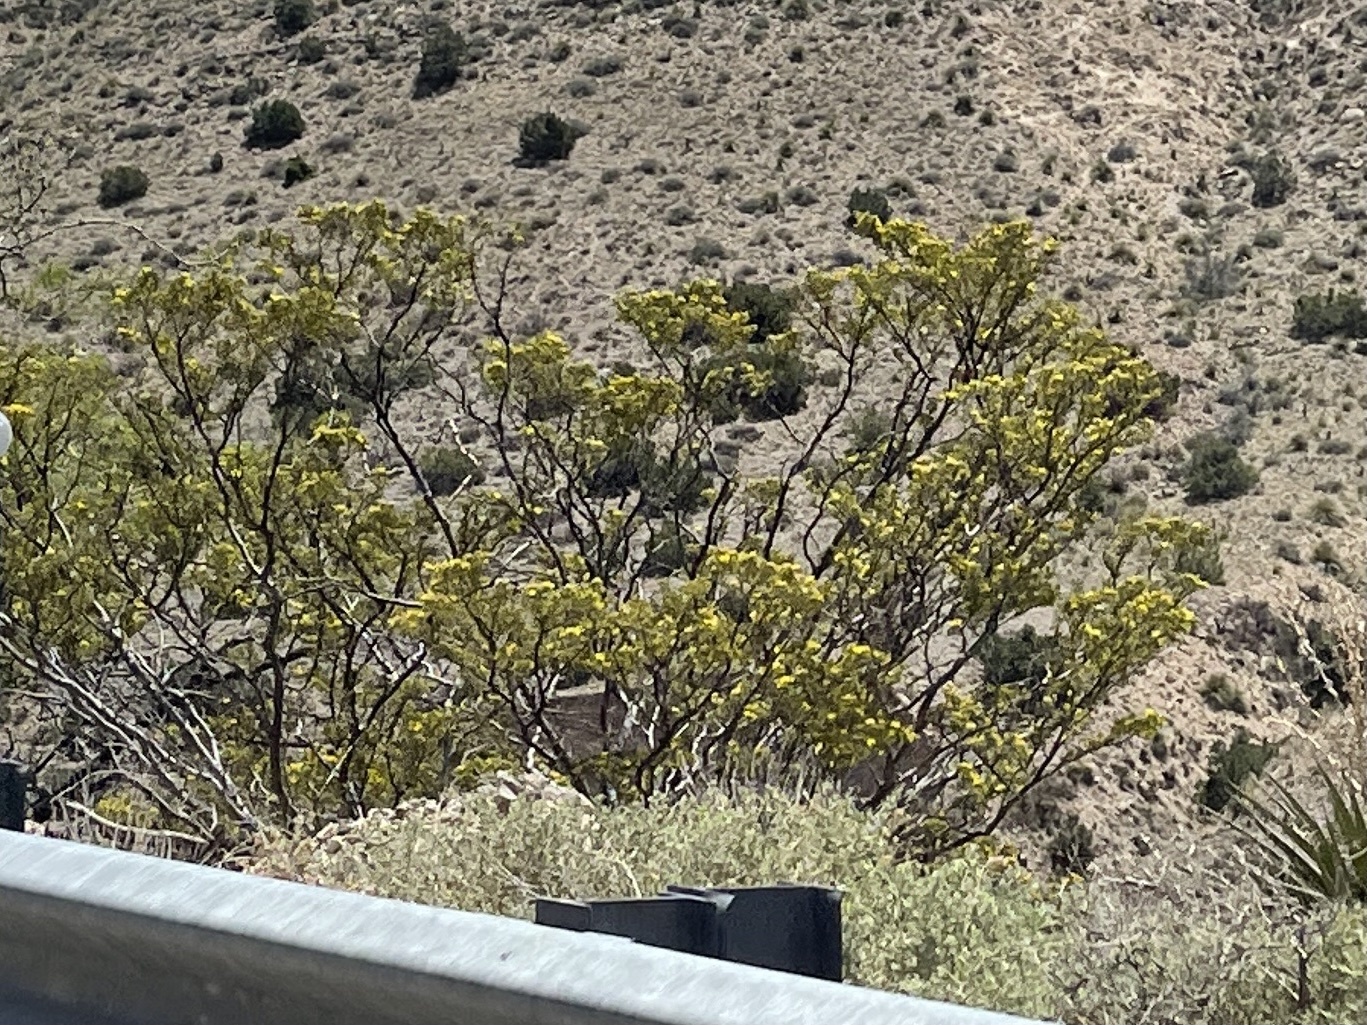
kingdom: Plantae
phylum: Tracheophyta
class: Magnoliopsida
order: Zygophyllales
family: Zygophyllaceae
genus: Larrea
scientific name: Larrea tridentata
